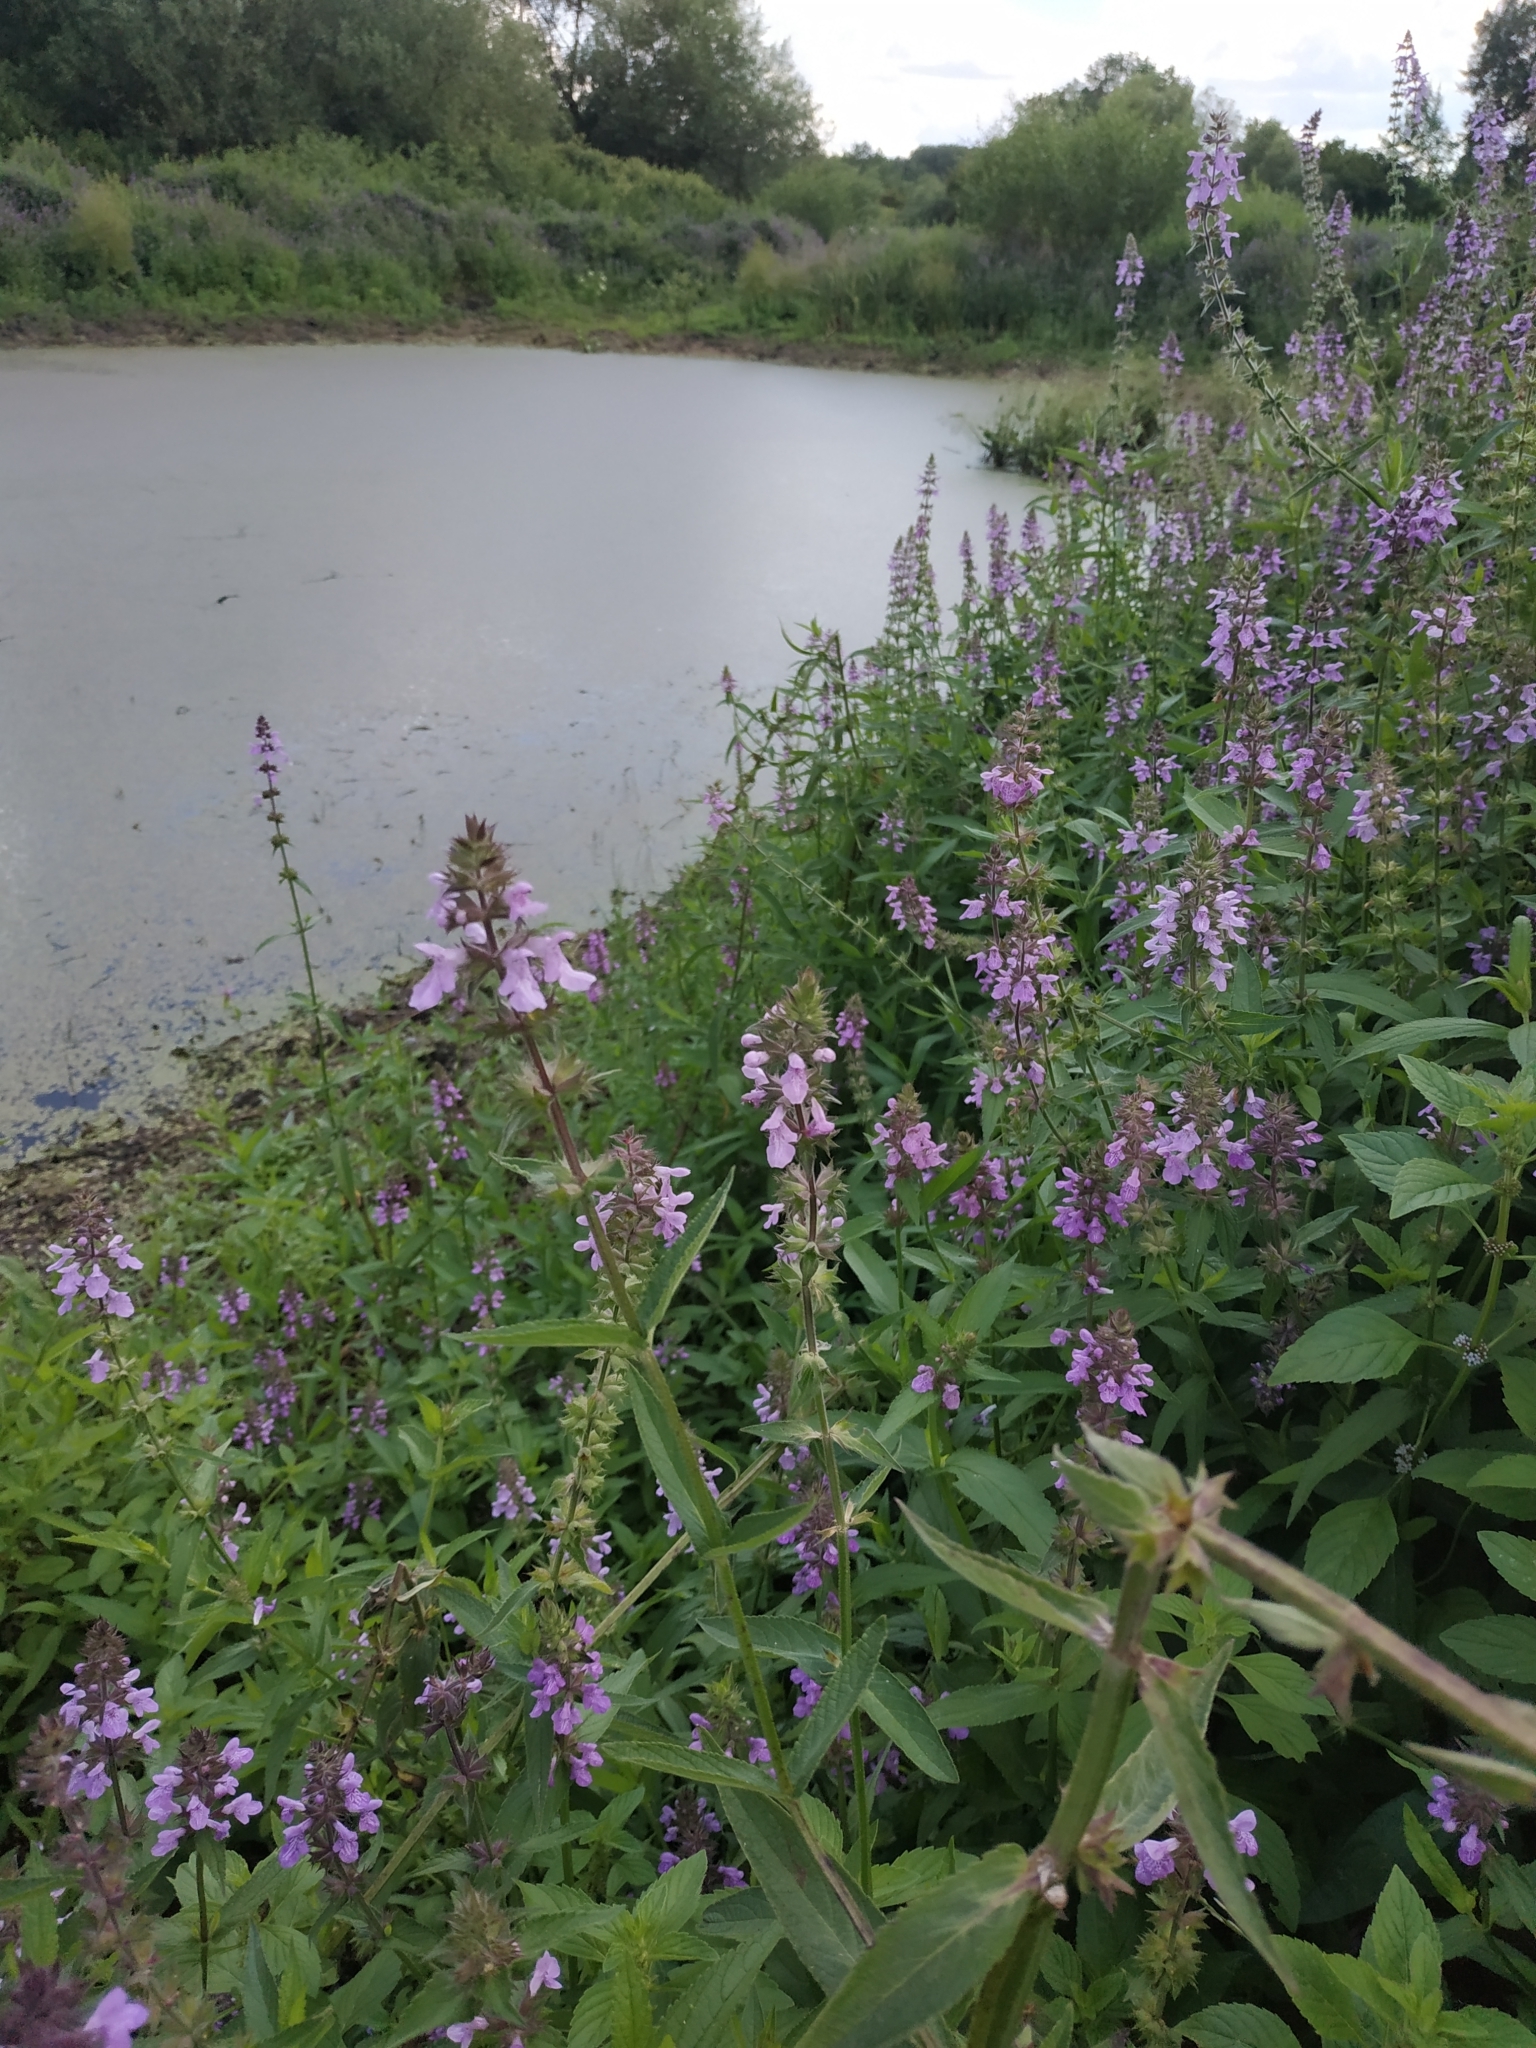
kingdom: Plantae
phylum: Tracheophyta
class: Magnoliopsida
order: Lamiales
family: Lamiaceae
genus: Stachys
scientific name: Stachys palustris
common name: Marsh woundwort
